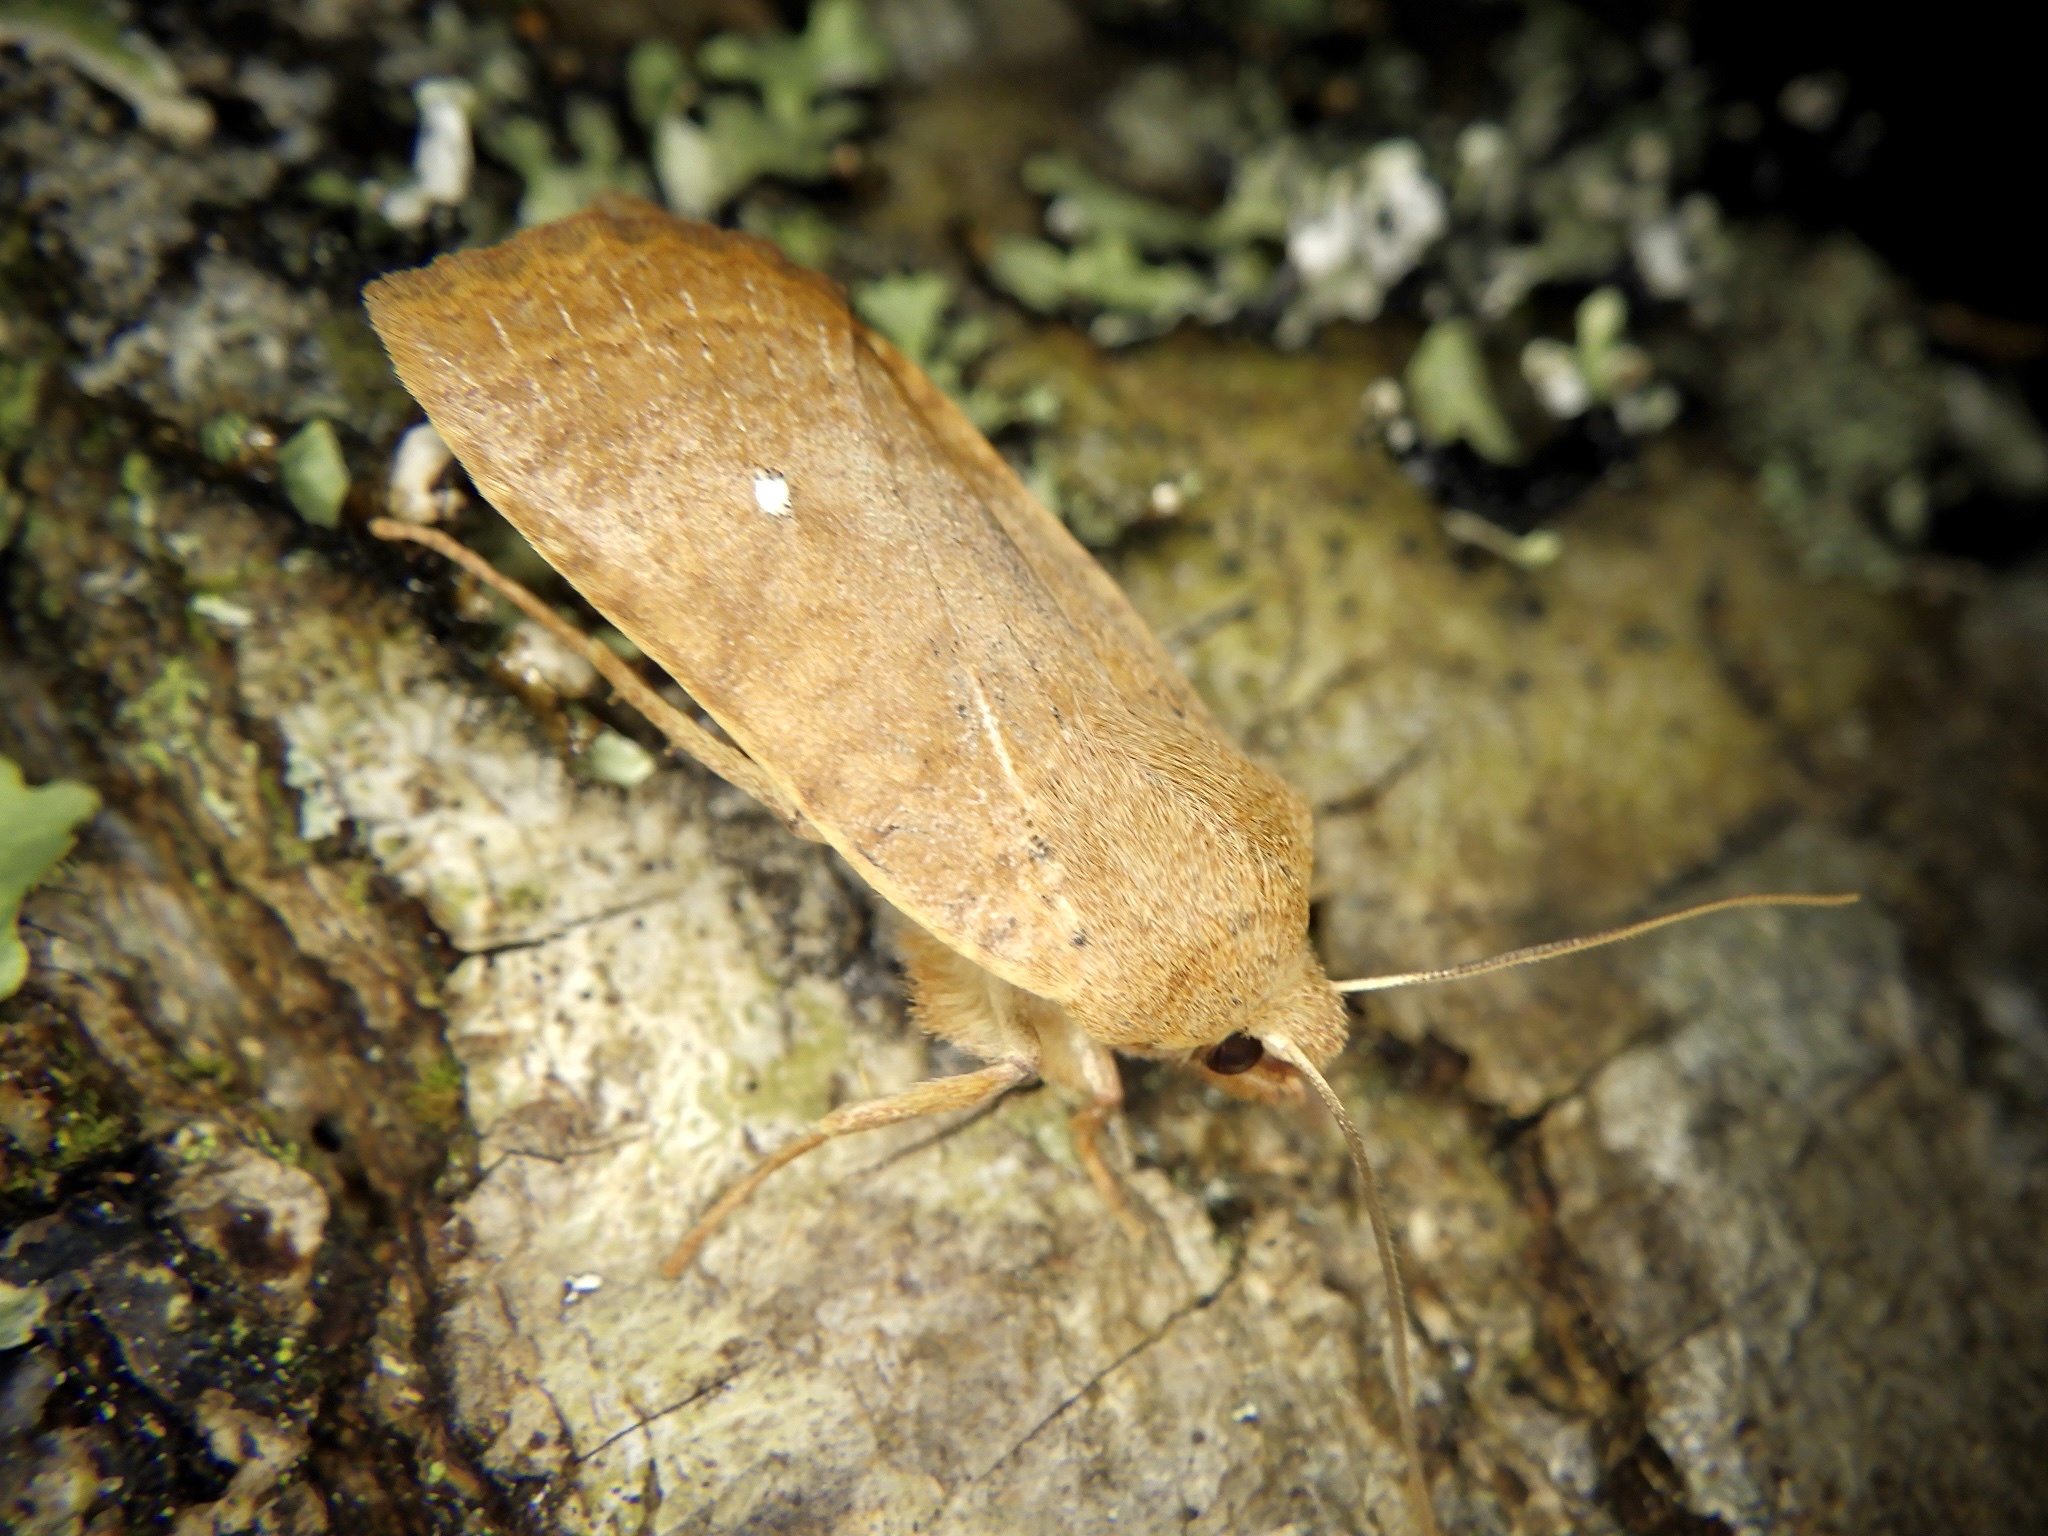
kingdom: Animalia
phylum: Arthropoda
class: Insecta
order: Lepidoptera
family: Noctuidae
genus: Conistra
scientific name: Conistra albipuncta
